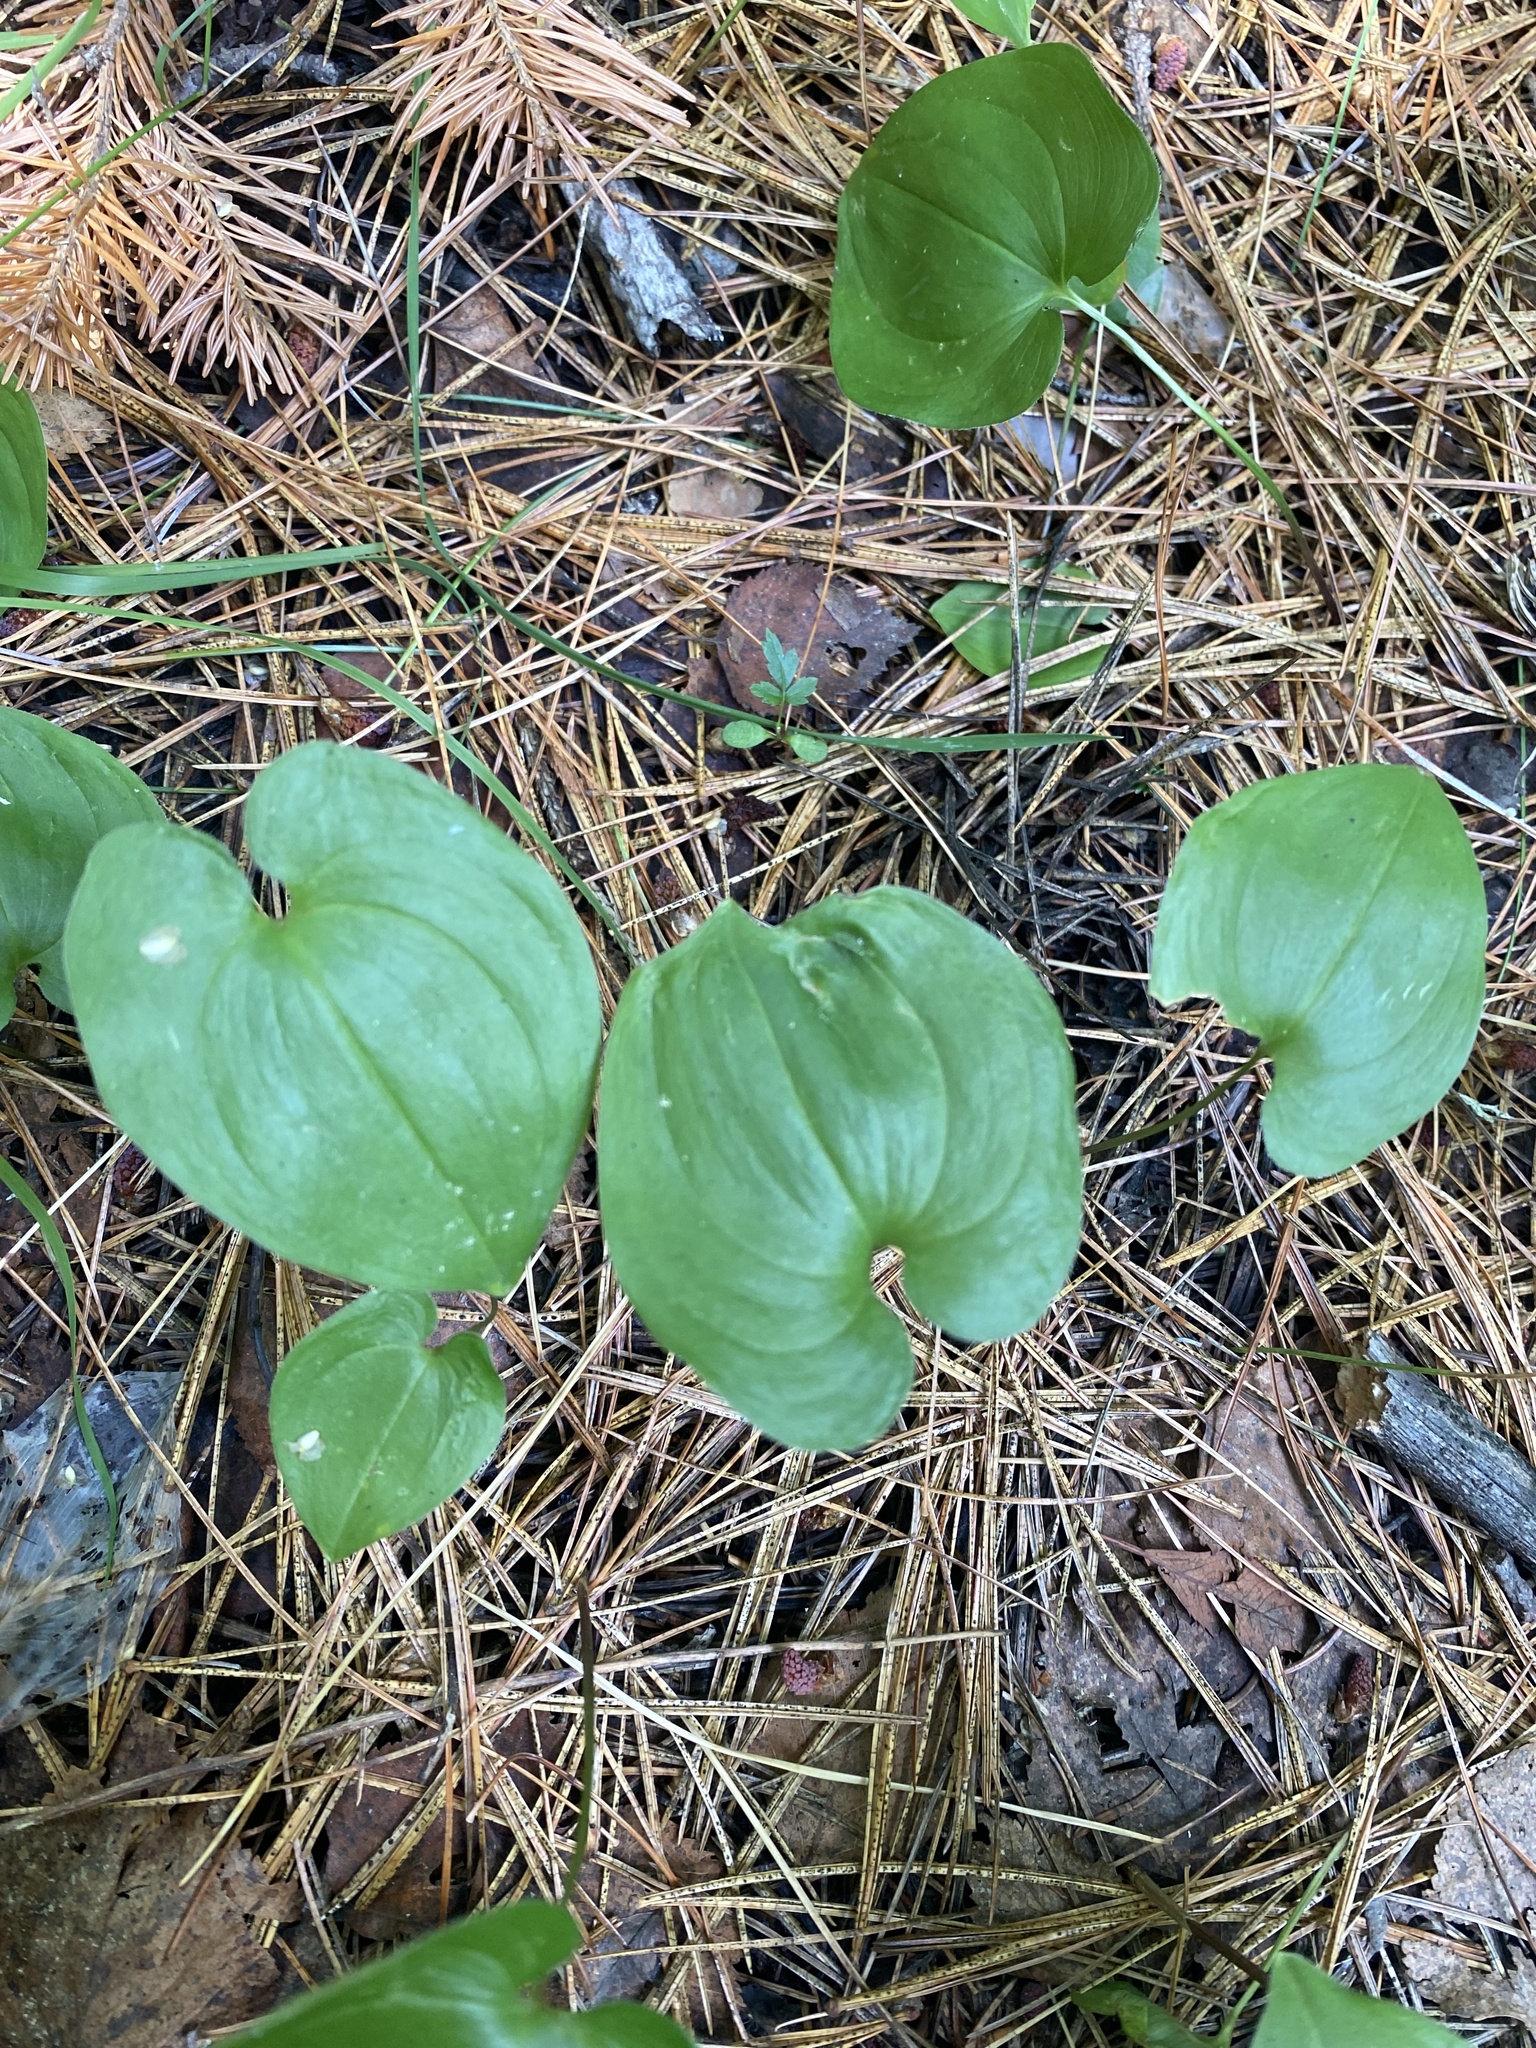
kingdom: Plantae
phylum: Tracheophyta
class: Liliopsida
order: Asparagales
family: Asparagaceae
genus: Maianthemum
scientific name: Maianthemum bifolium
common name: May lily
